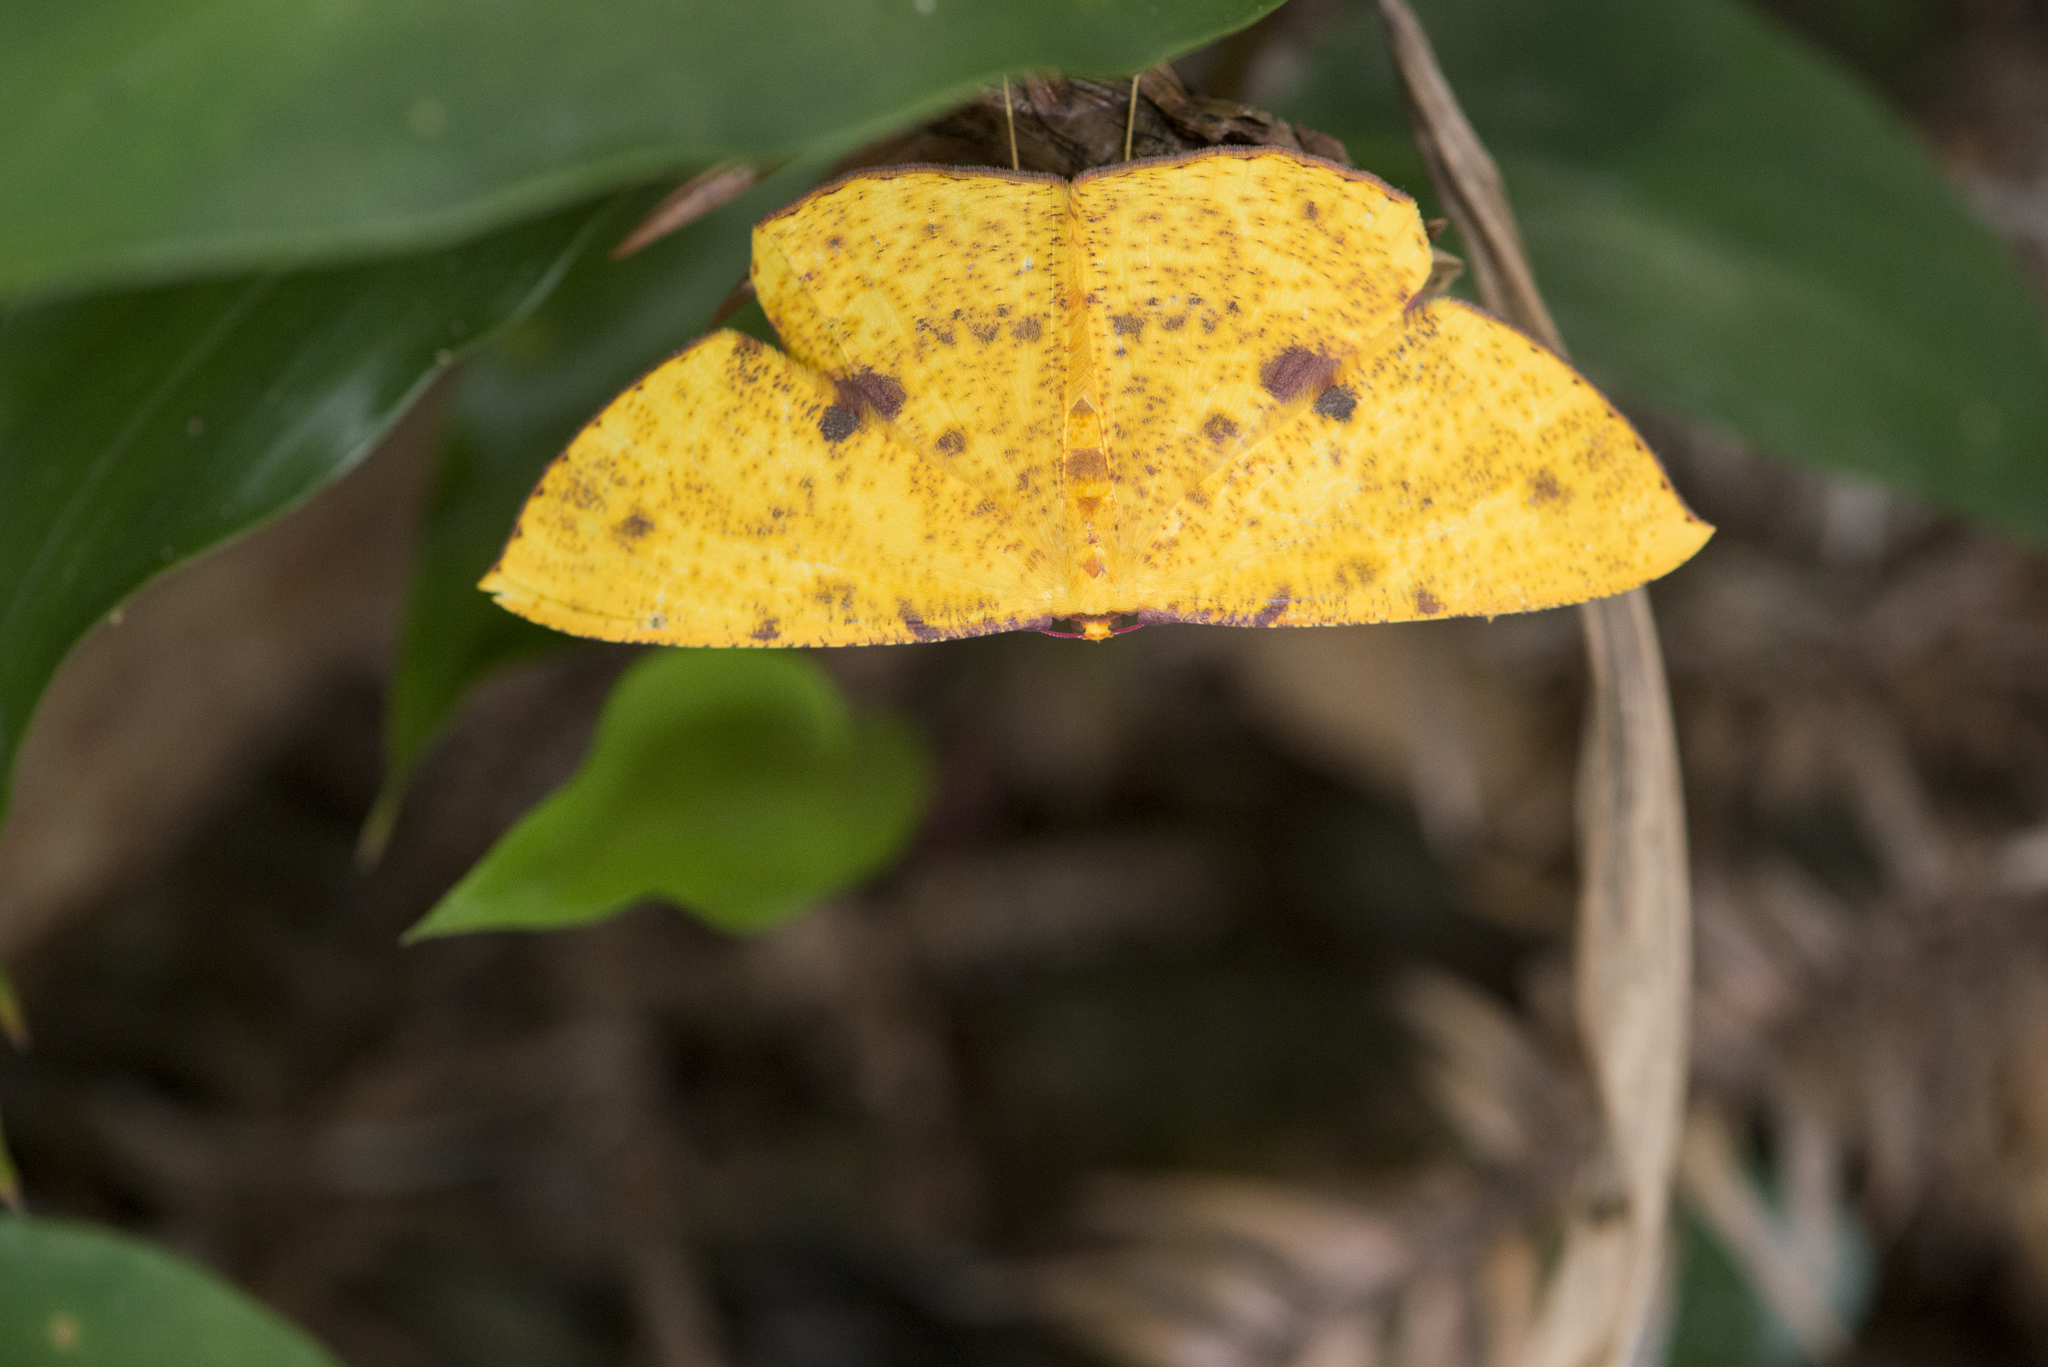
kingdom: Animalia
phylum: Arthropoda
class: Insecta
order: Lepidoptera
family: Geometridae
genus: Eumelea
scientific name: Eumelea ludovicata
